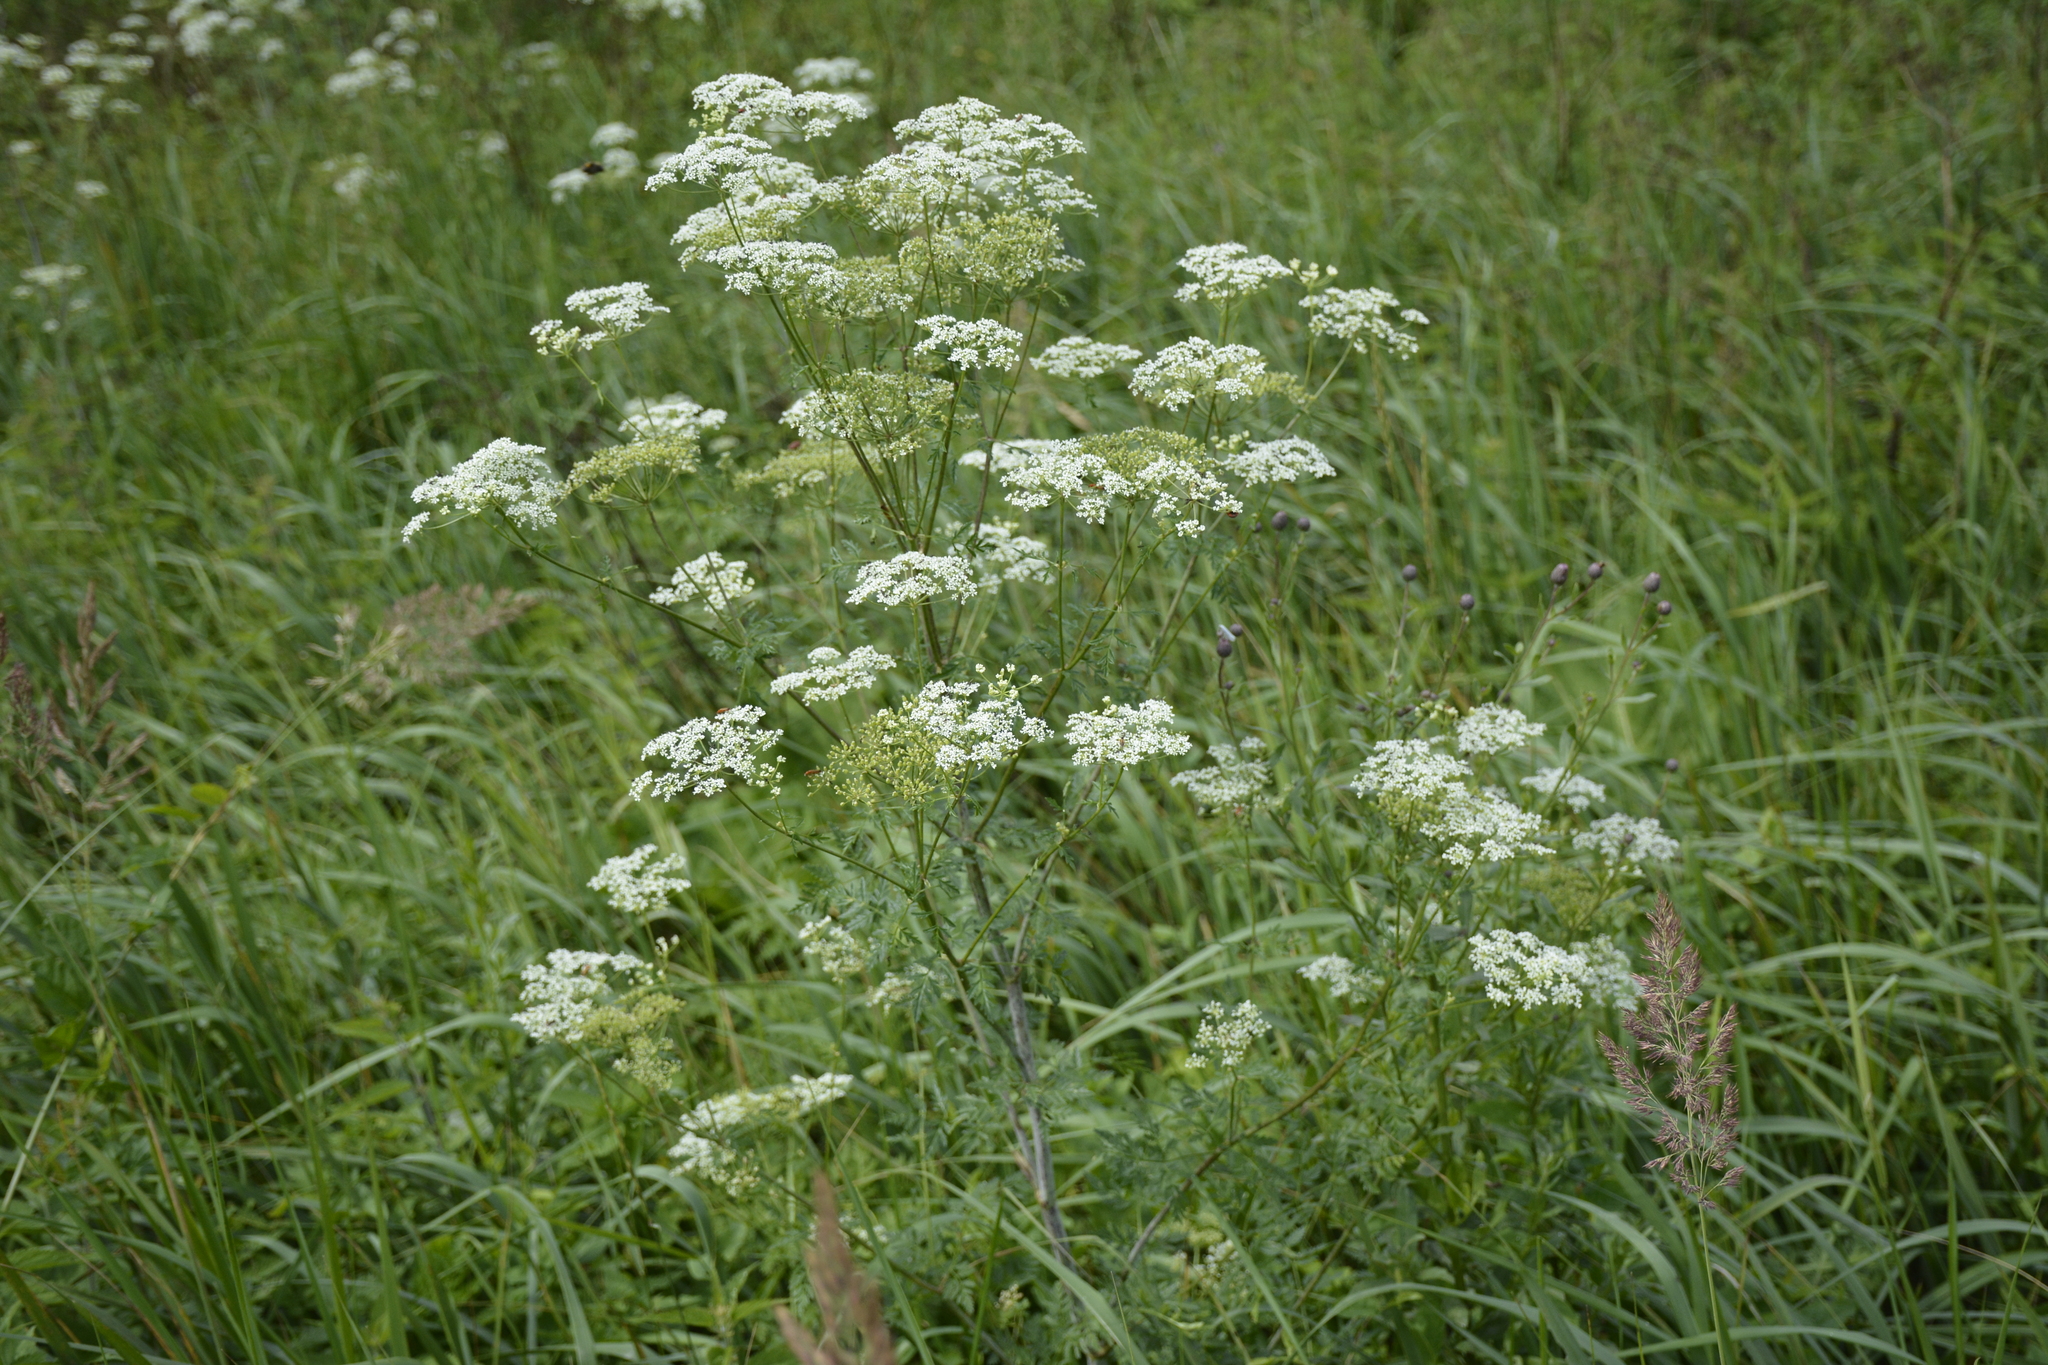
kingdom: Plantae
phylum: Tracheophyta
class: Magnoliopsida
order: Apiales
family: Apiaceae
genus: Conium
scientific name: Conium maculatum
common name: Hemlock
